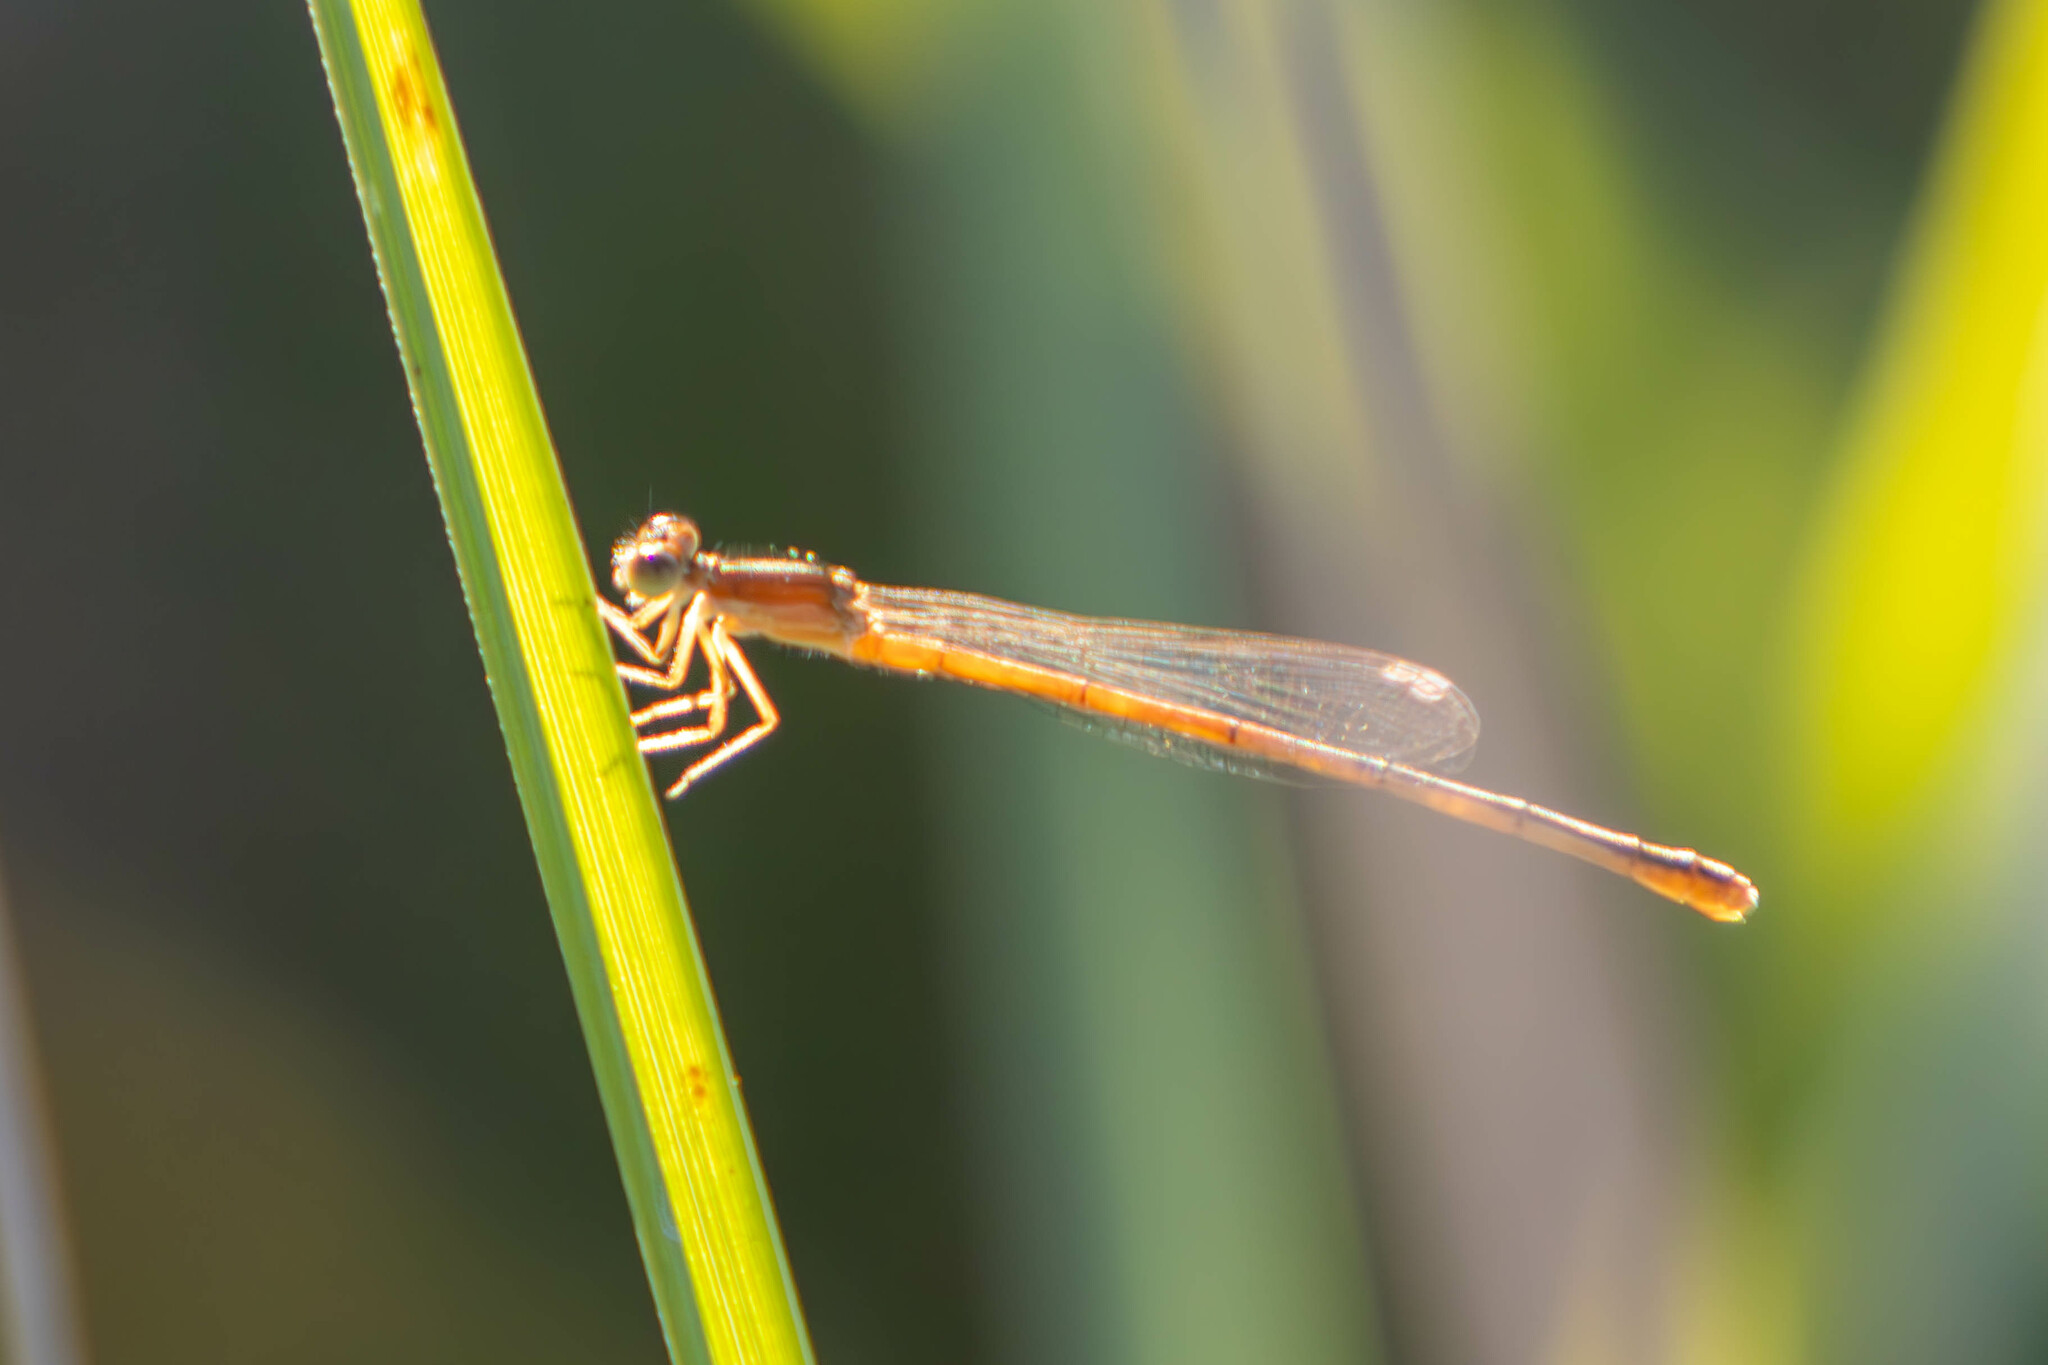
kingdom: Animalia
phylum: Arthropoda
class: Insecta
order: Odonata
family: Coenagrionidae
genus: Ischnura
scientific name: Ischnura hastata
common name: Citrine forktail
